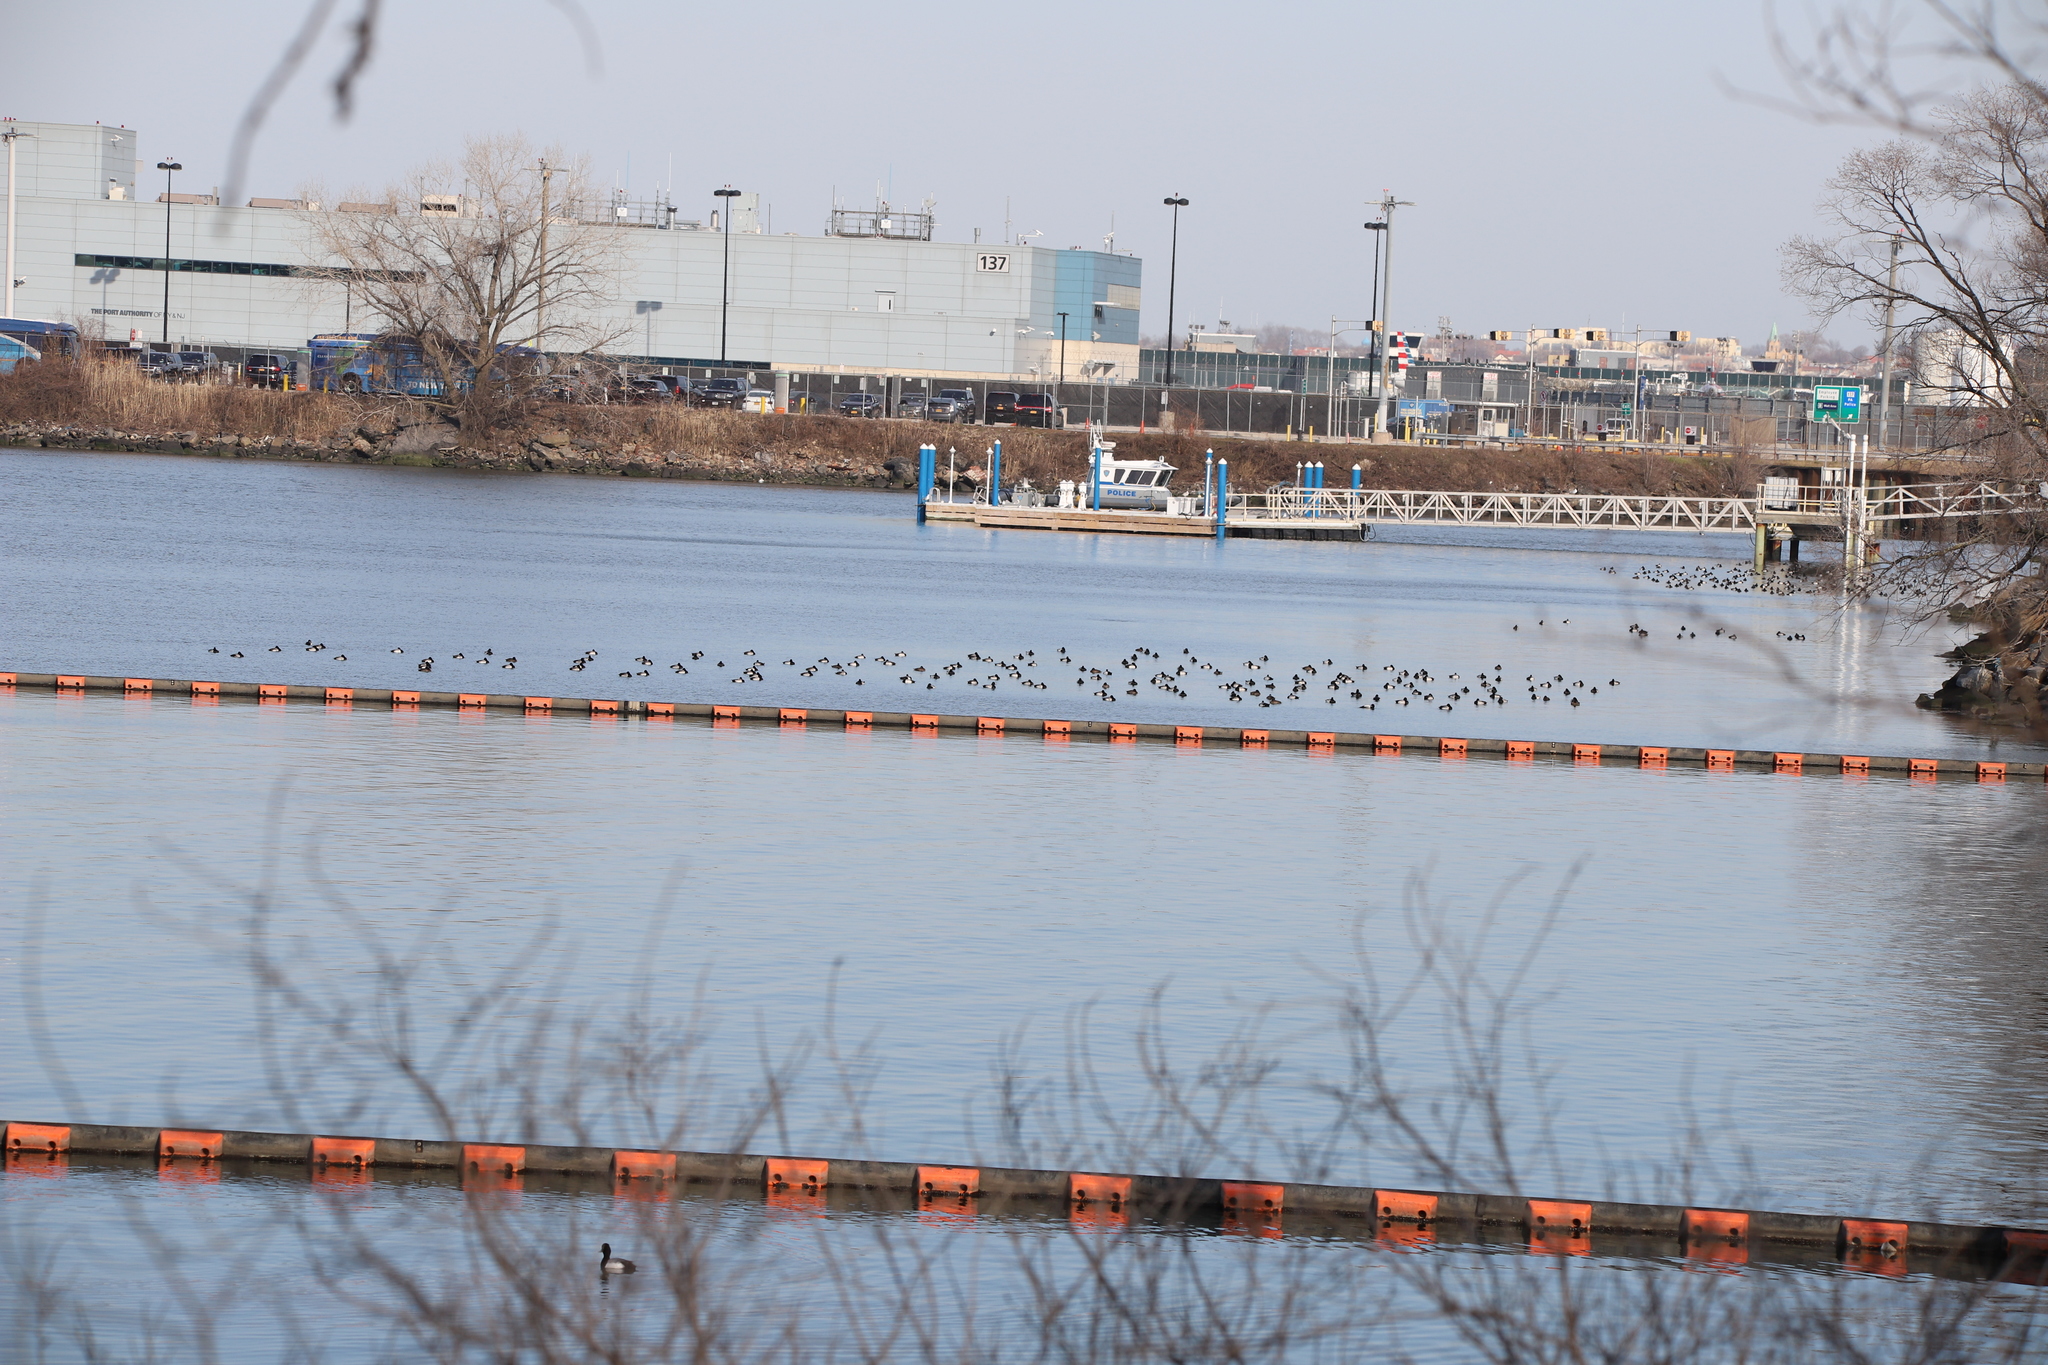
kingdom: Animalia
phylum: Chordata
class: Aves
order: Anseriformes
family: Anatidae
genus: Aythya
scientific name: Aythya affinis
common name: Lesser scaup
